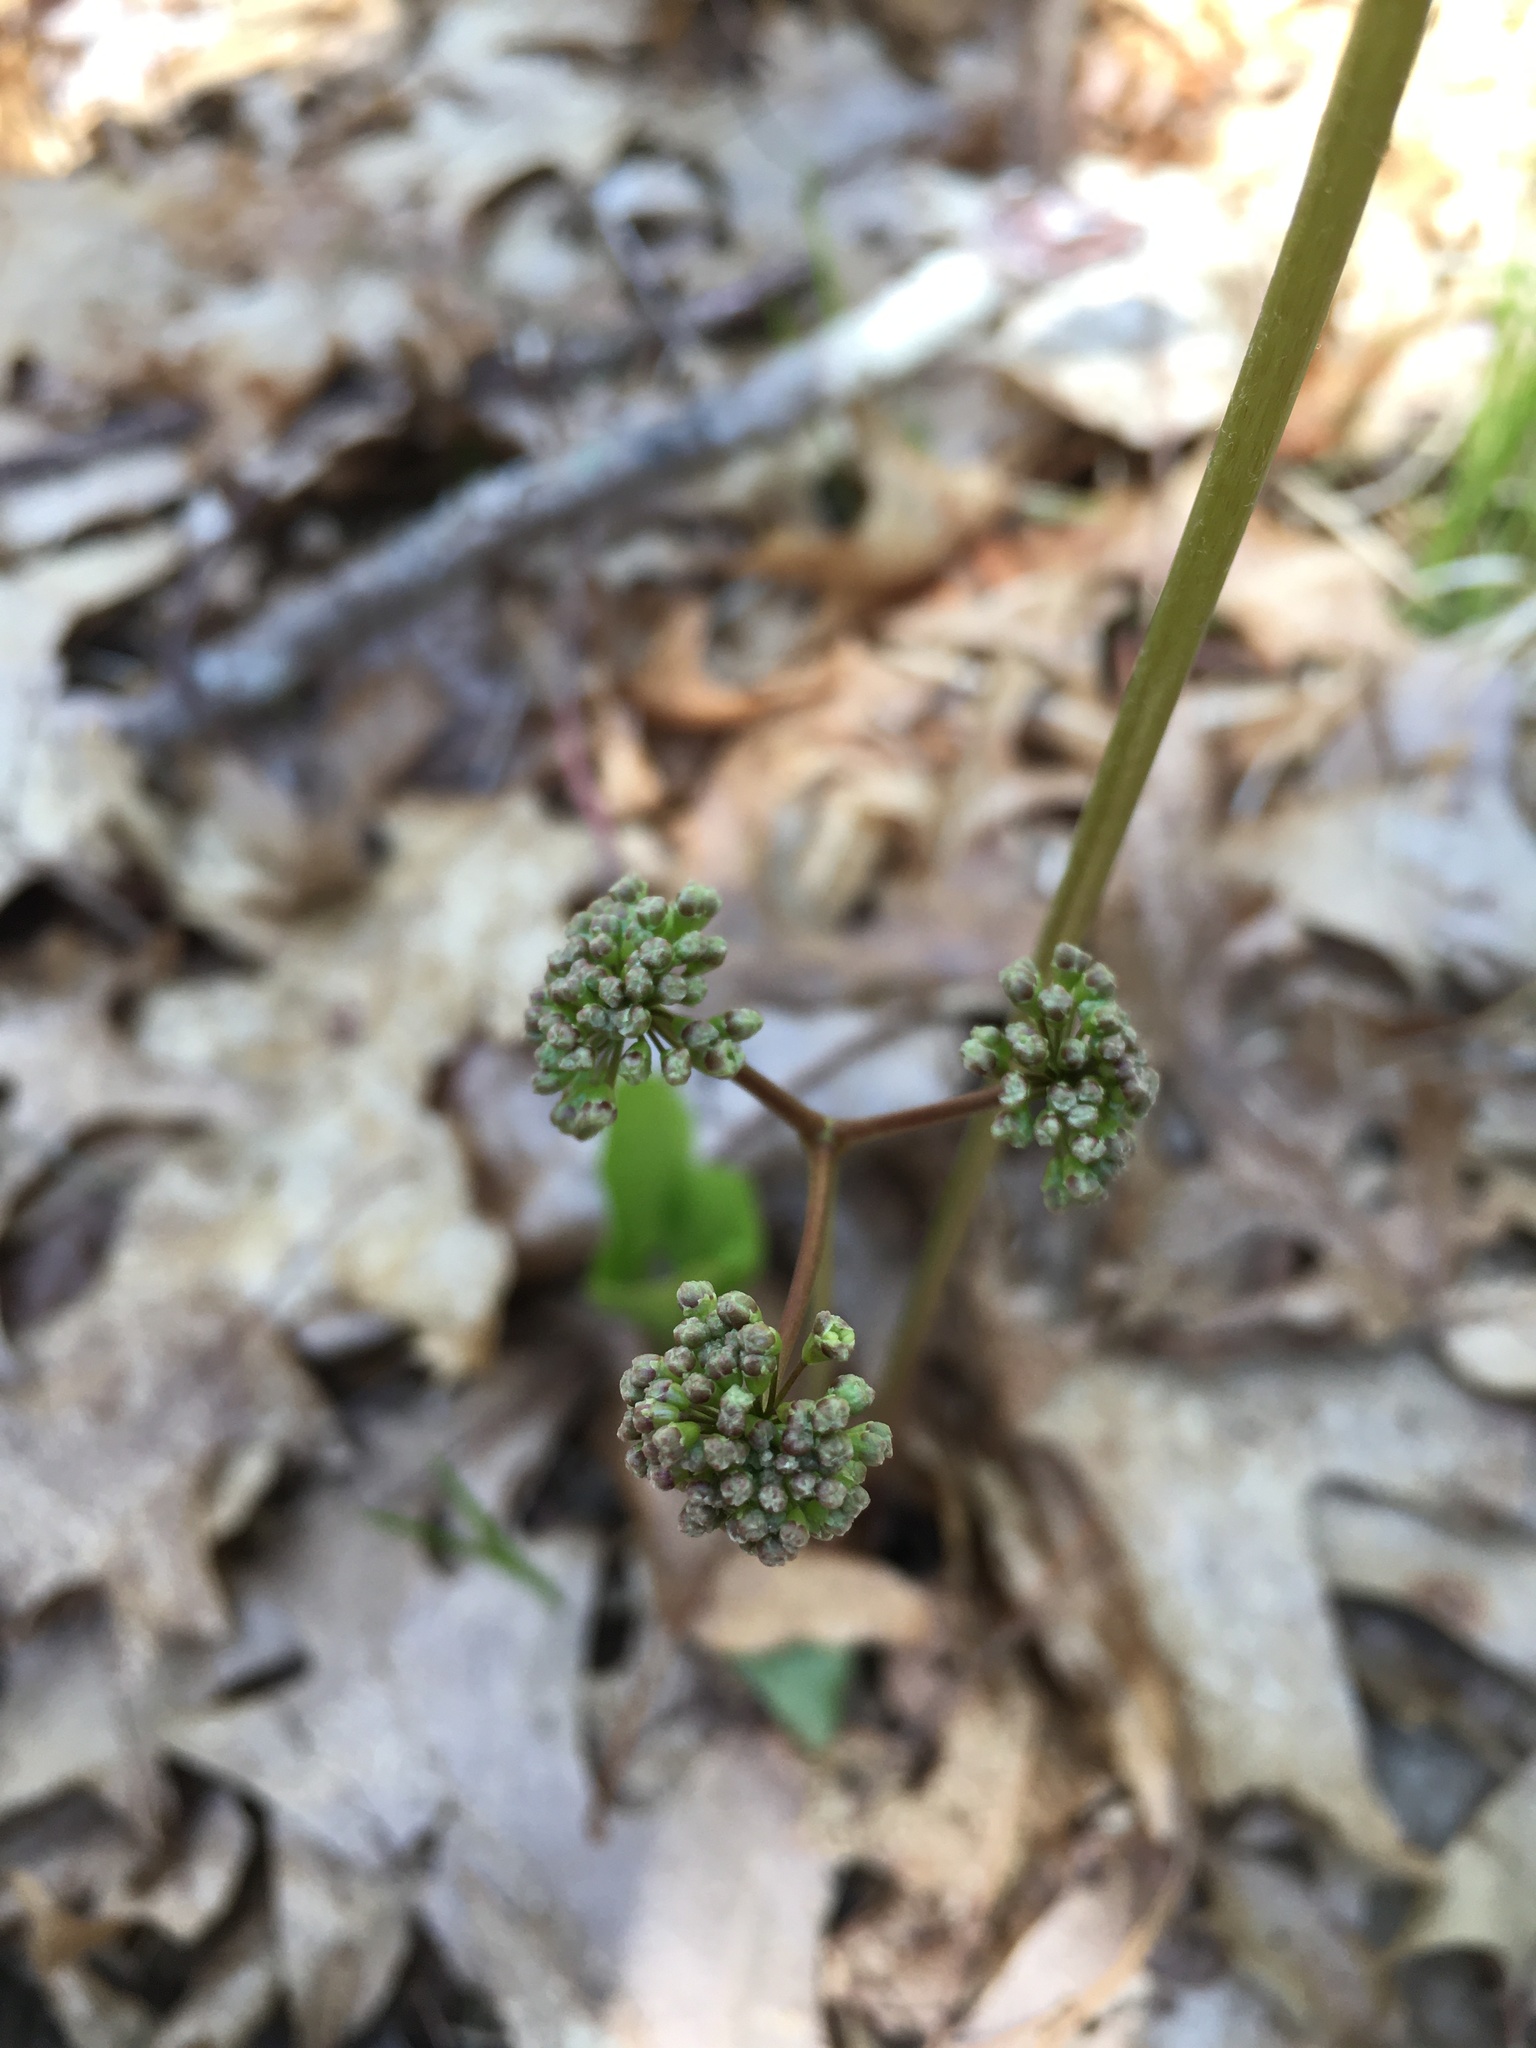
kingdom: Plantae
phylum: Tracheophyta
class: Magnoliopsida
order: Apiales
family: Araliaceae
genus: Aralia
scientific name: Aralia nudicaulis
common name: Wild sarsaparilla
